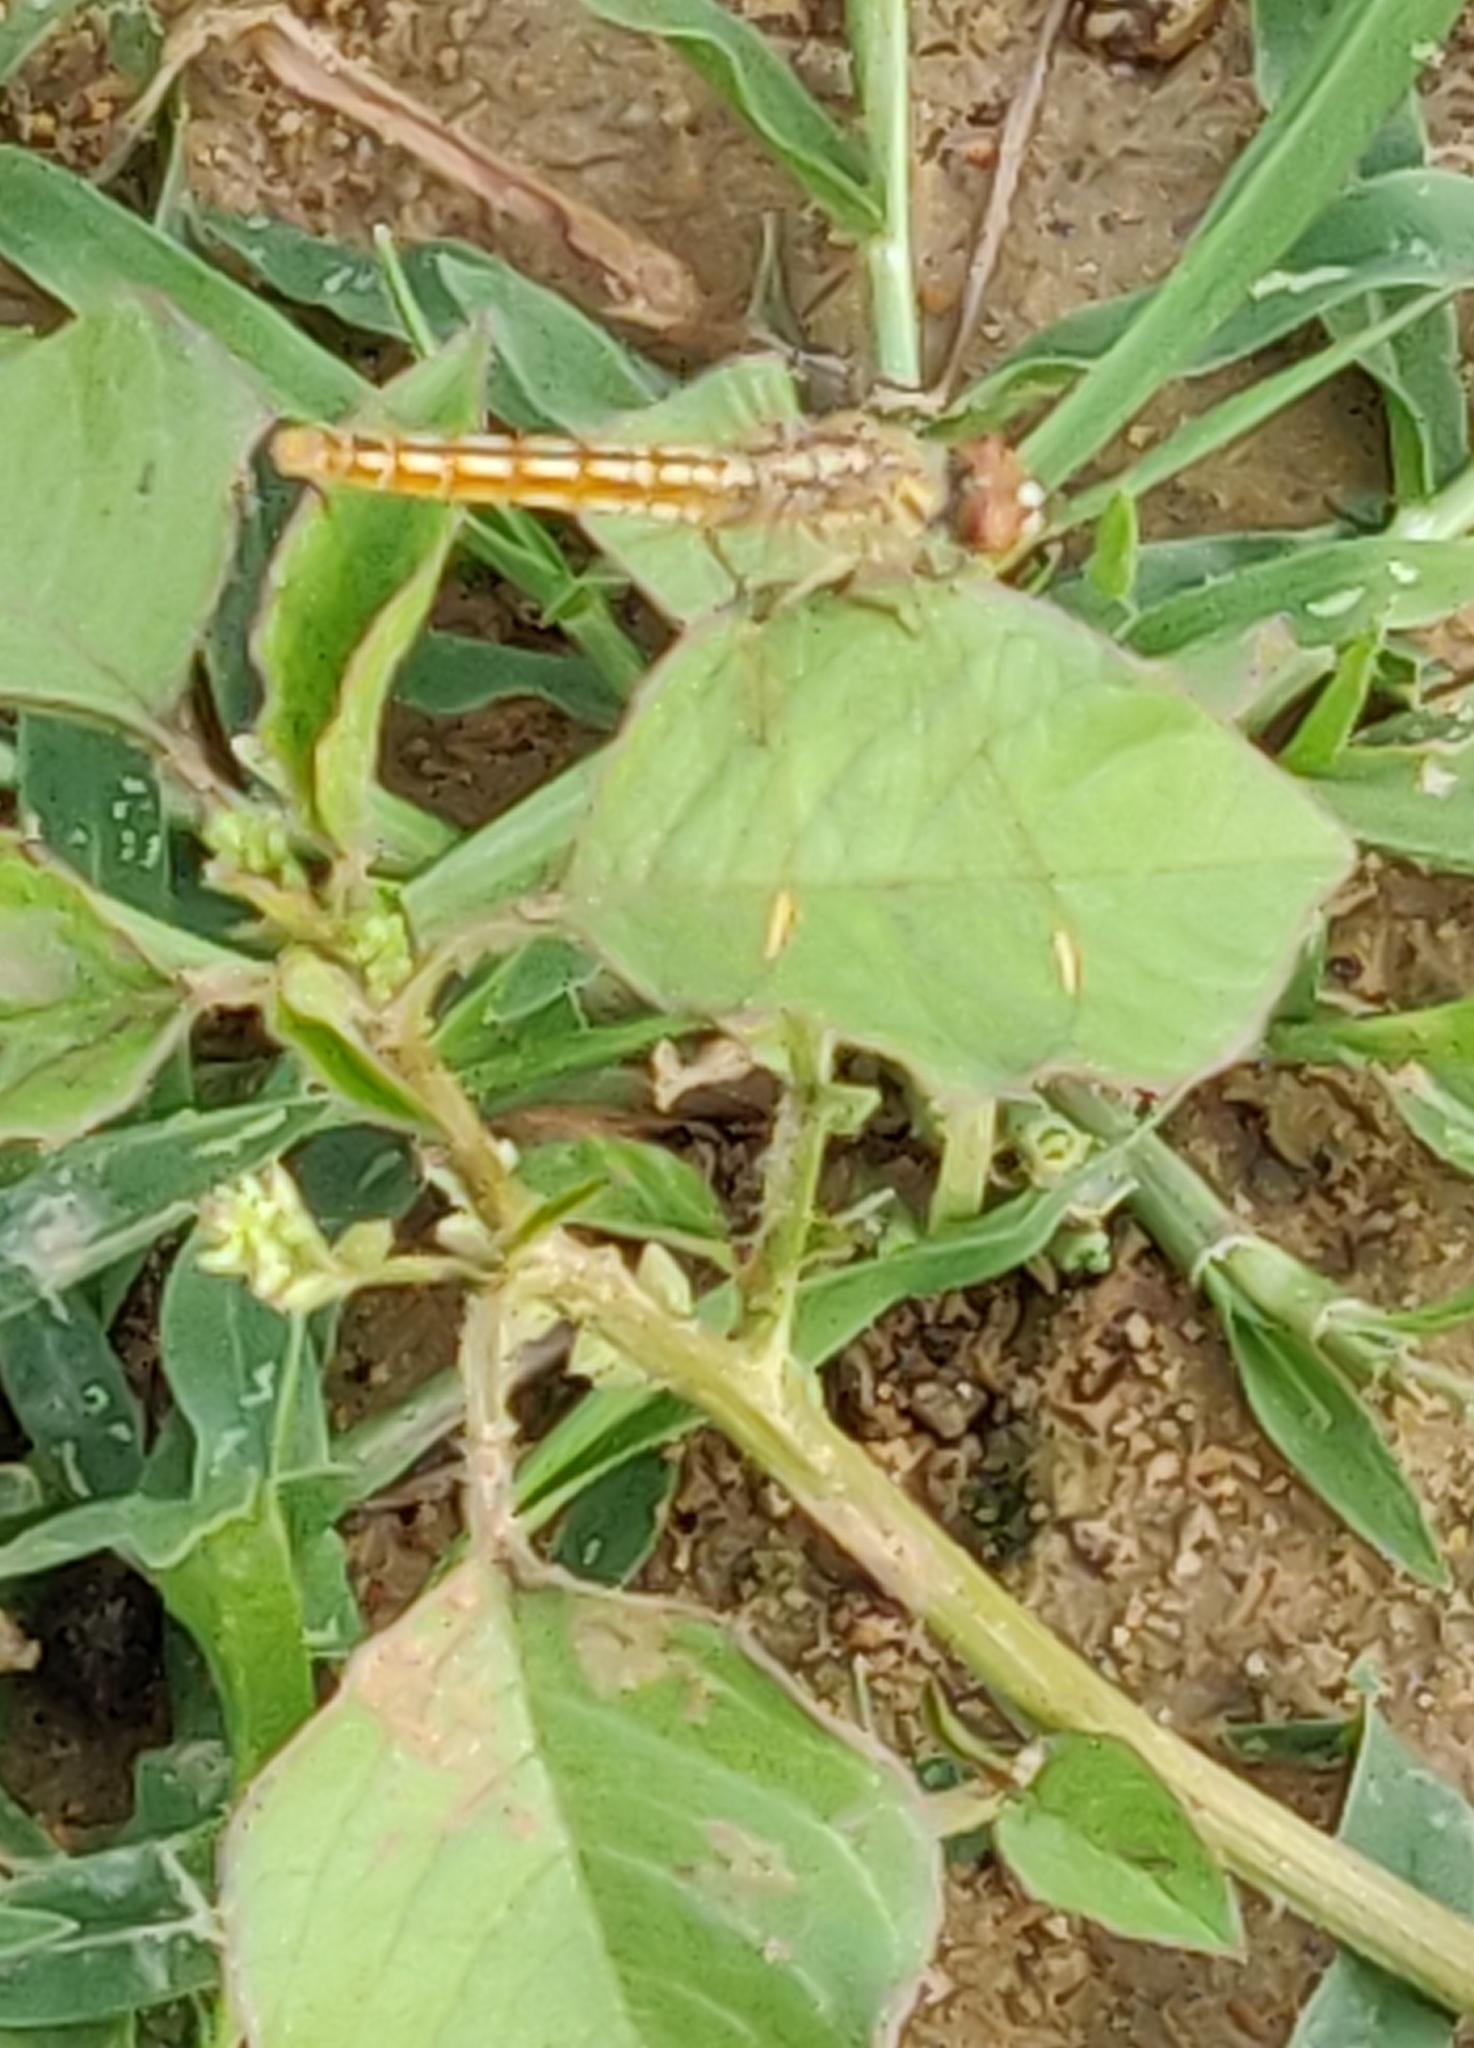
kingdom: Animalia
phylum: Arthropoda
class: Insecta
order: Odonata
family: Libellulidae
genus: Brachythemis
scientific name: Brachythemis contaminata
